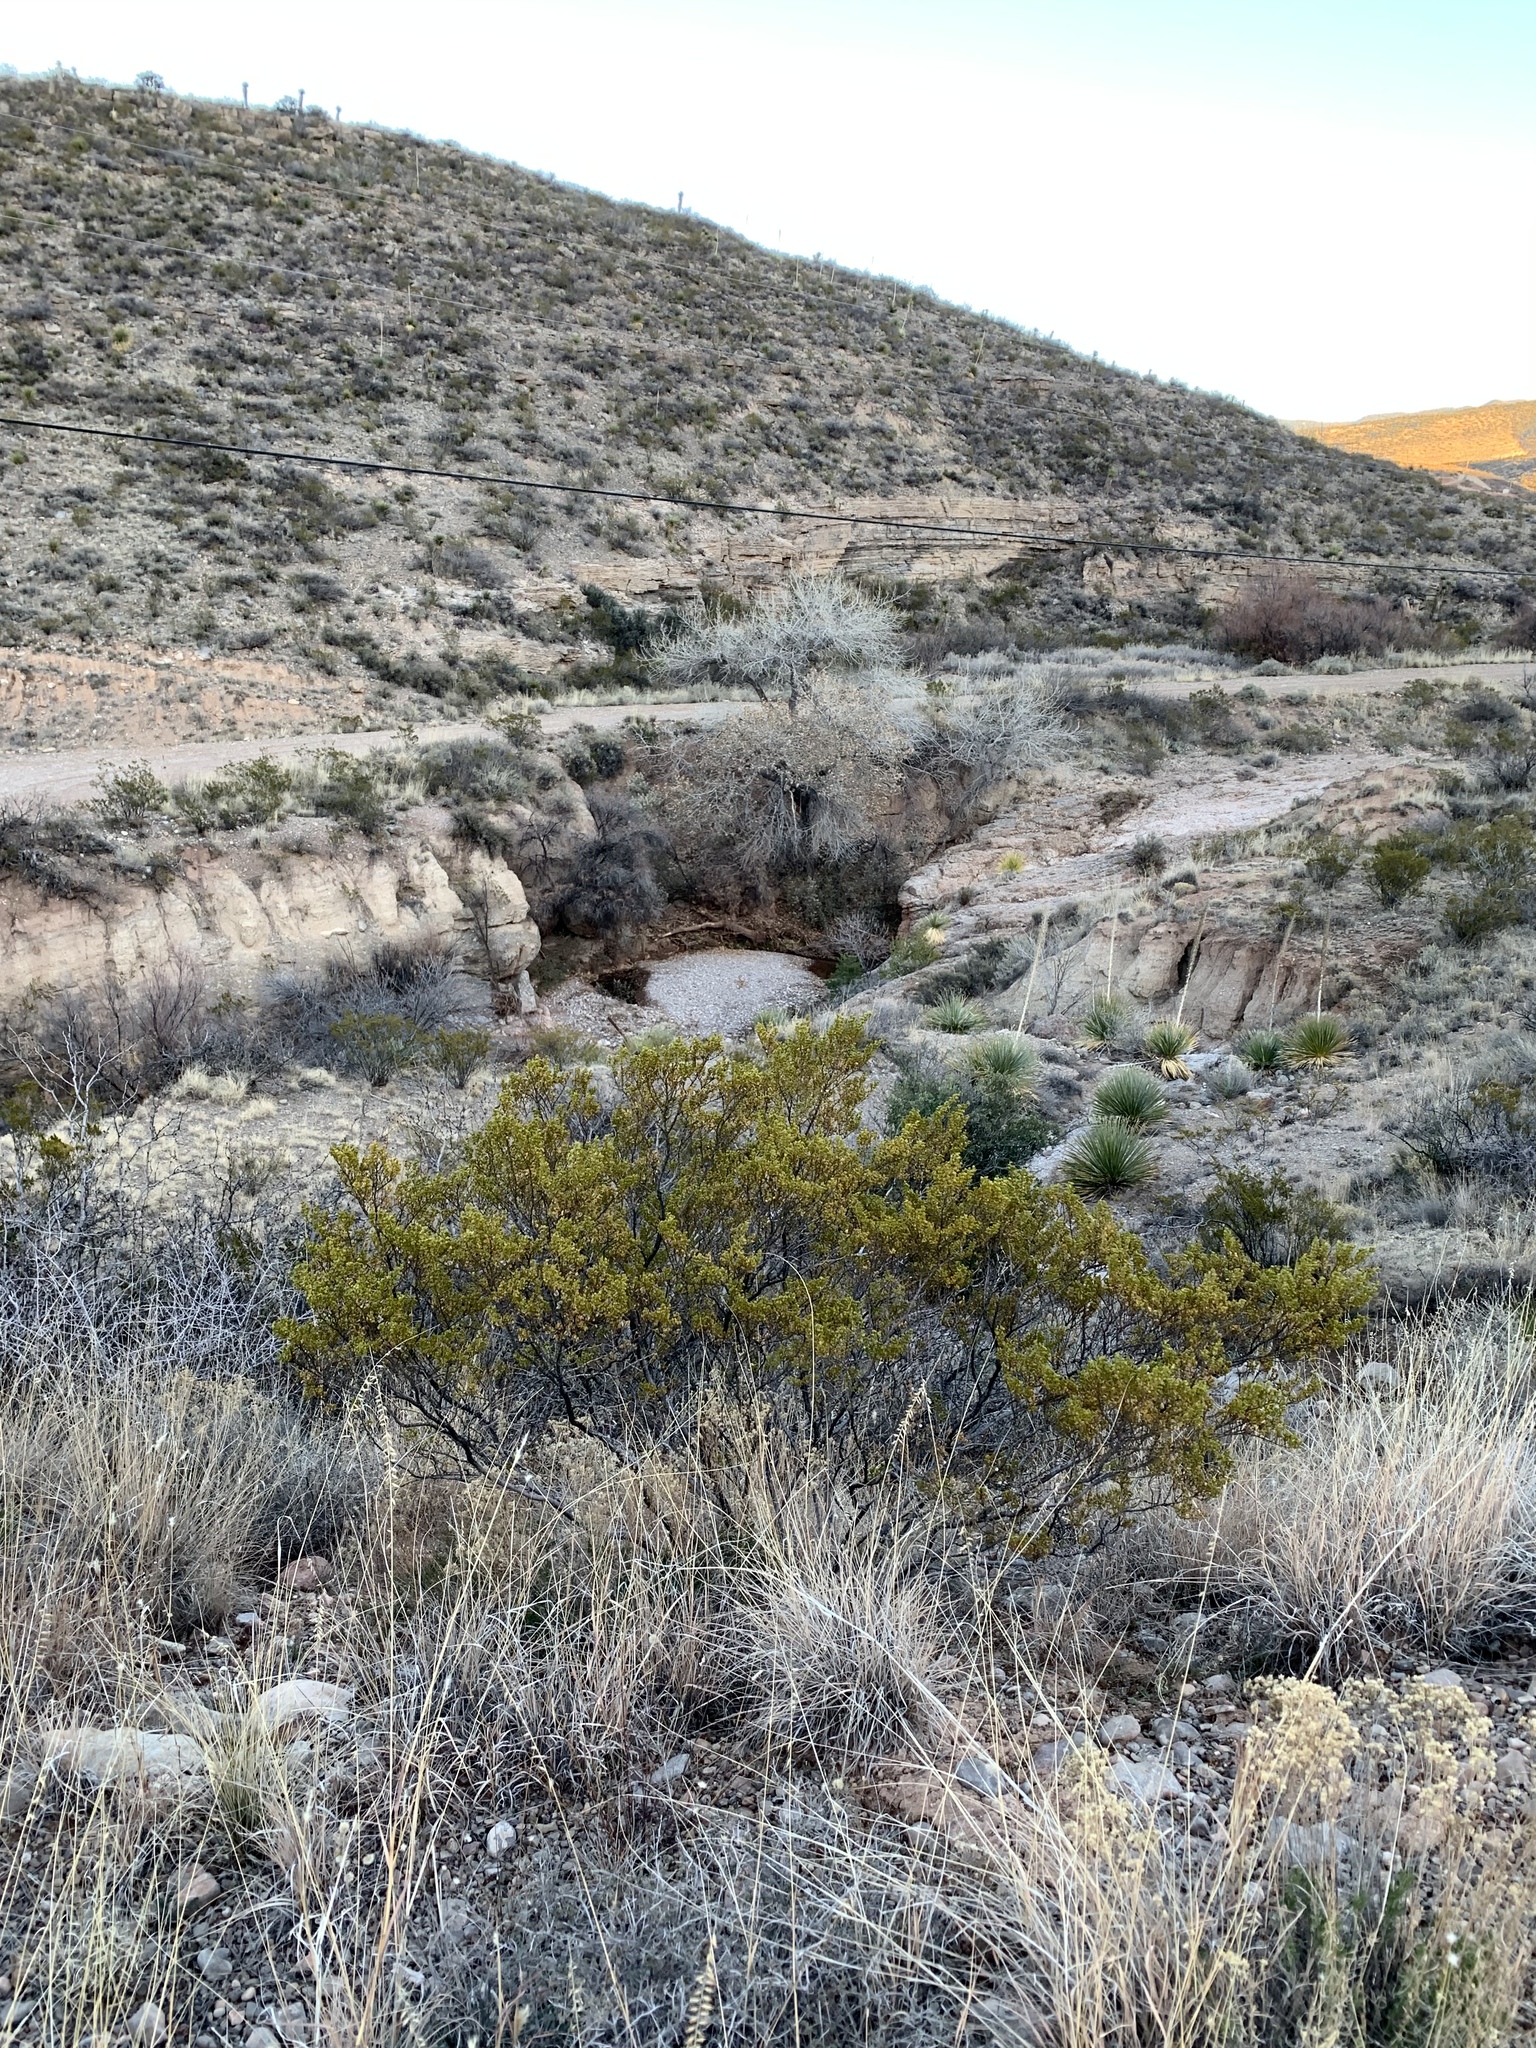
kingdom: Plantae
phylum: Tracheophyta
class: Magnoliopsida
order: Zygophyllales
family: Zygophyllaceae
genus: Larrea
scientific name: Larrea tridentata
